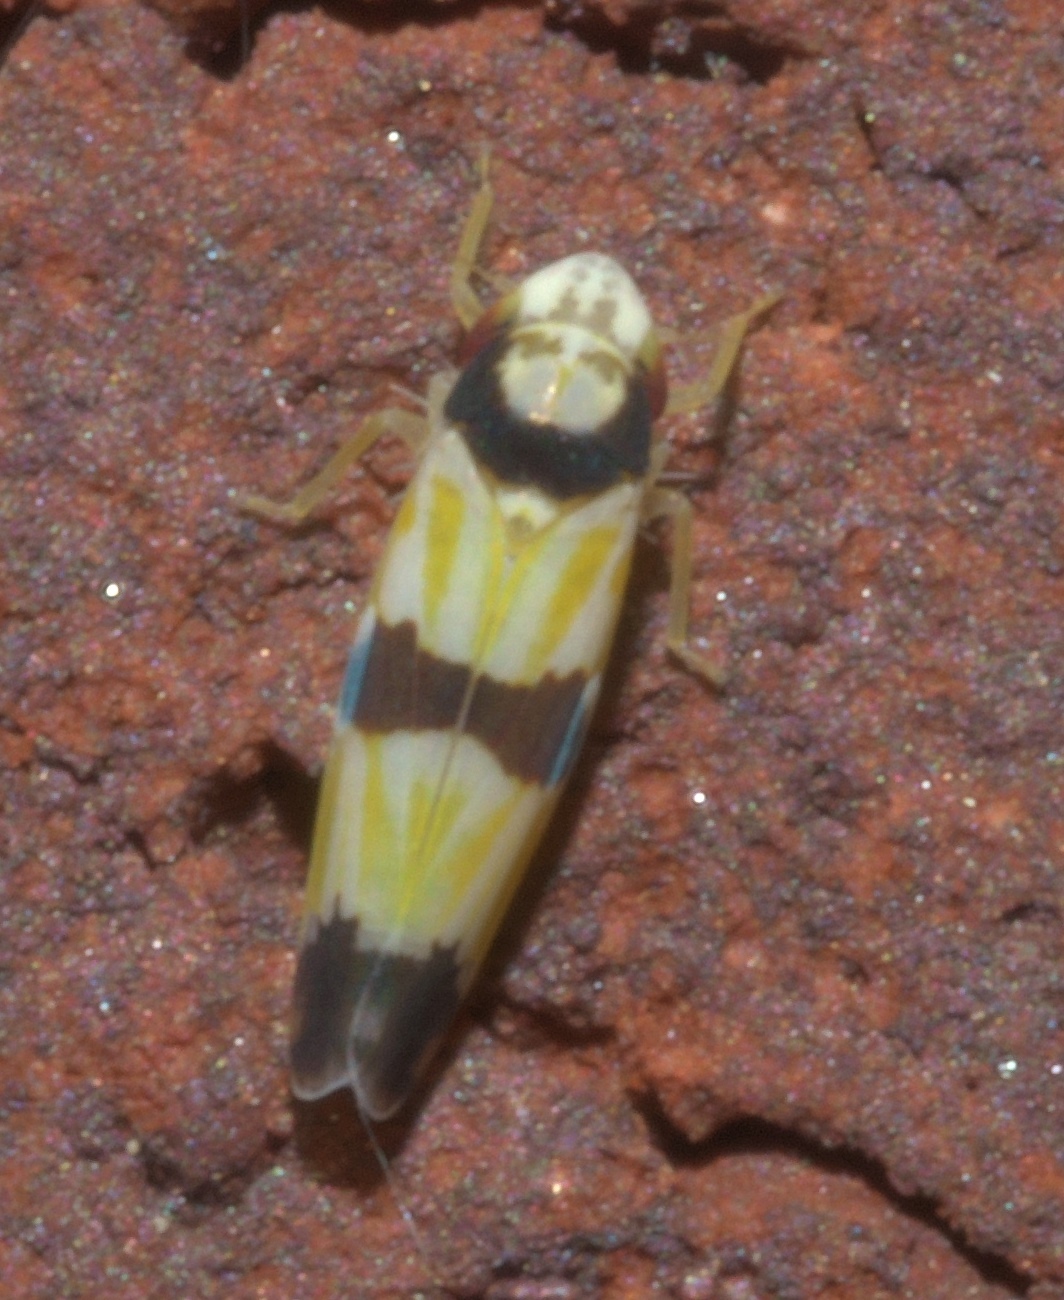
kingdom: Animalia
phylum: Arthropoda
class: Insecta
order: Hemiptera
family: Cicadellidae
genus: Erythroneura
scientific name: Erythroneura calycula
